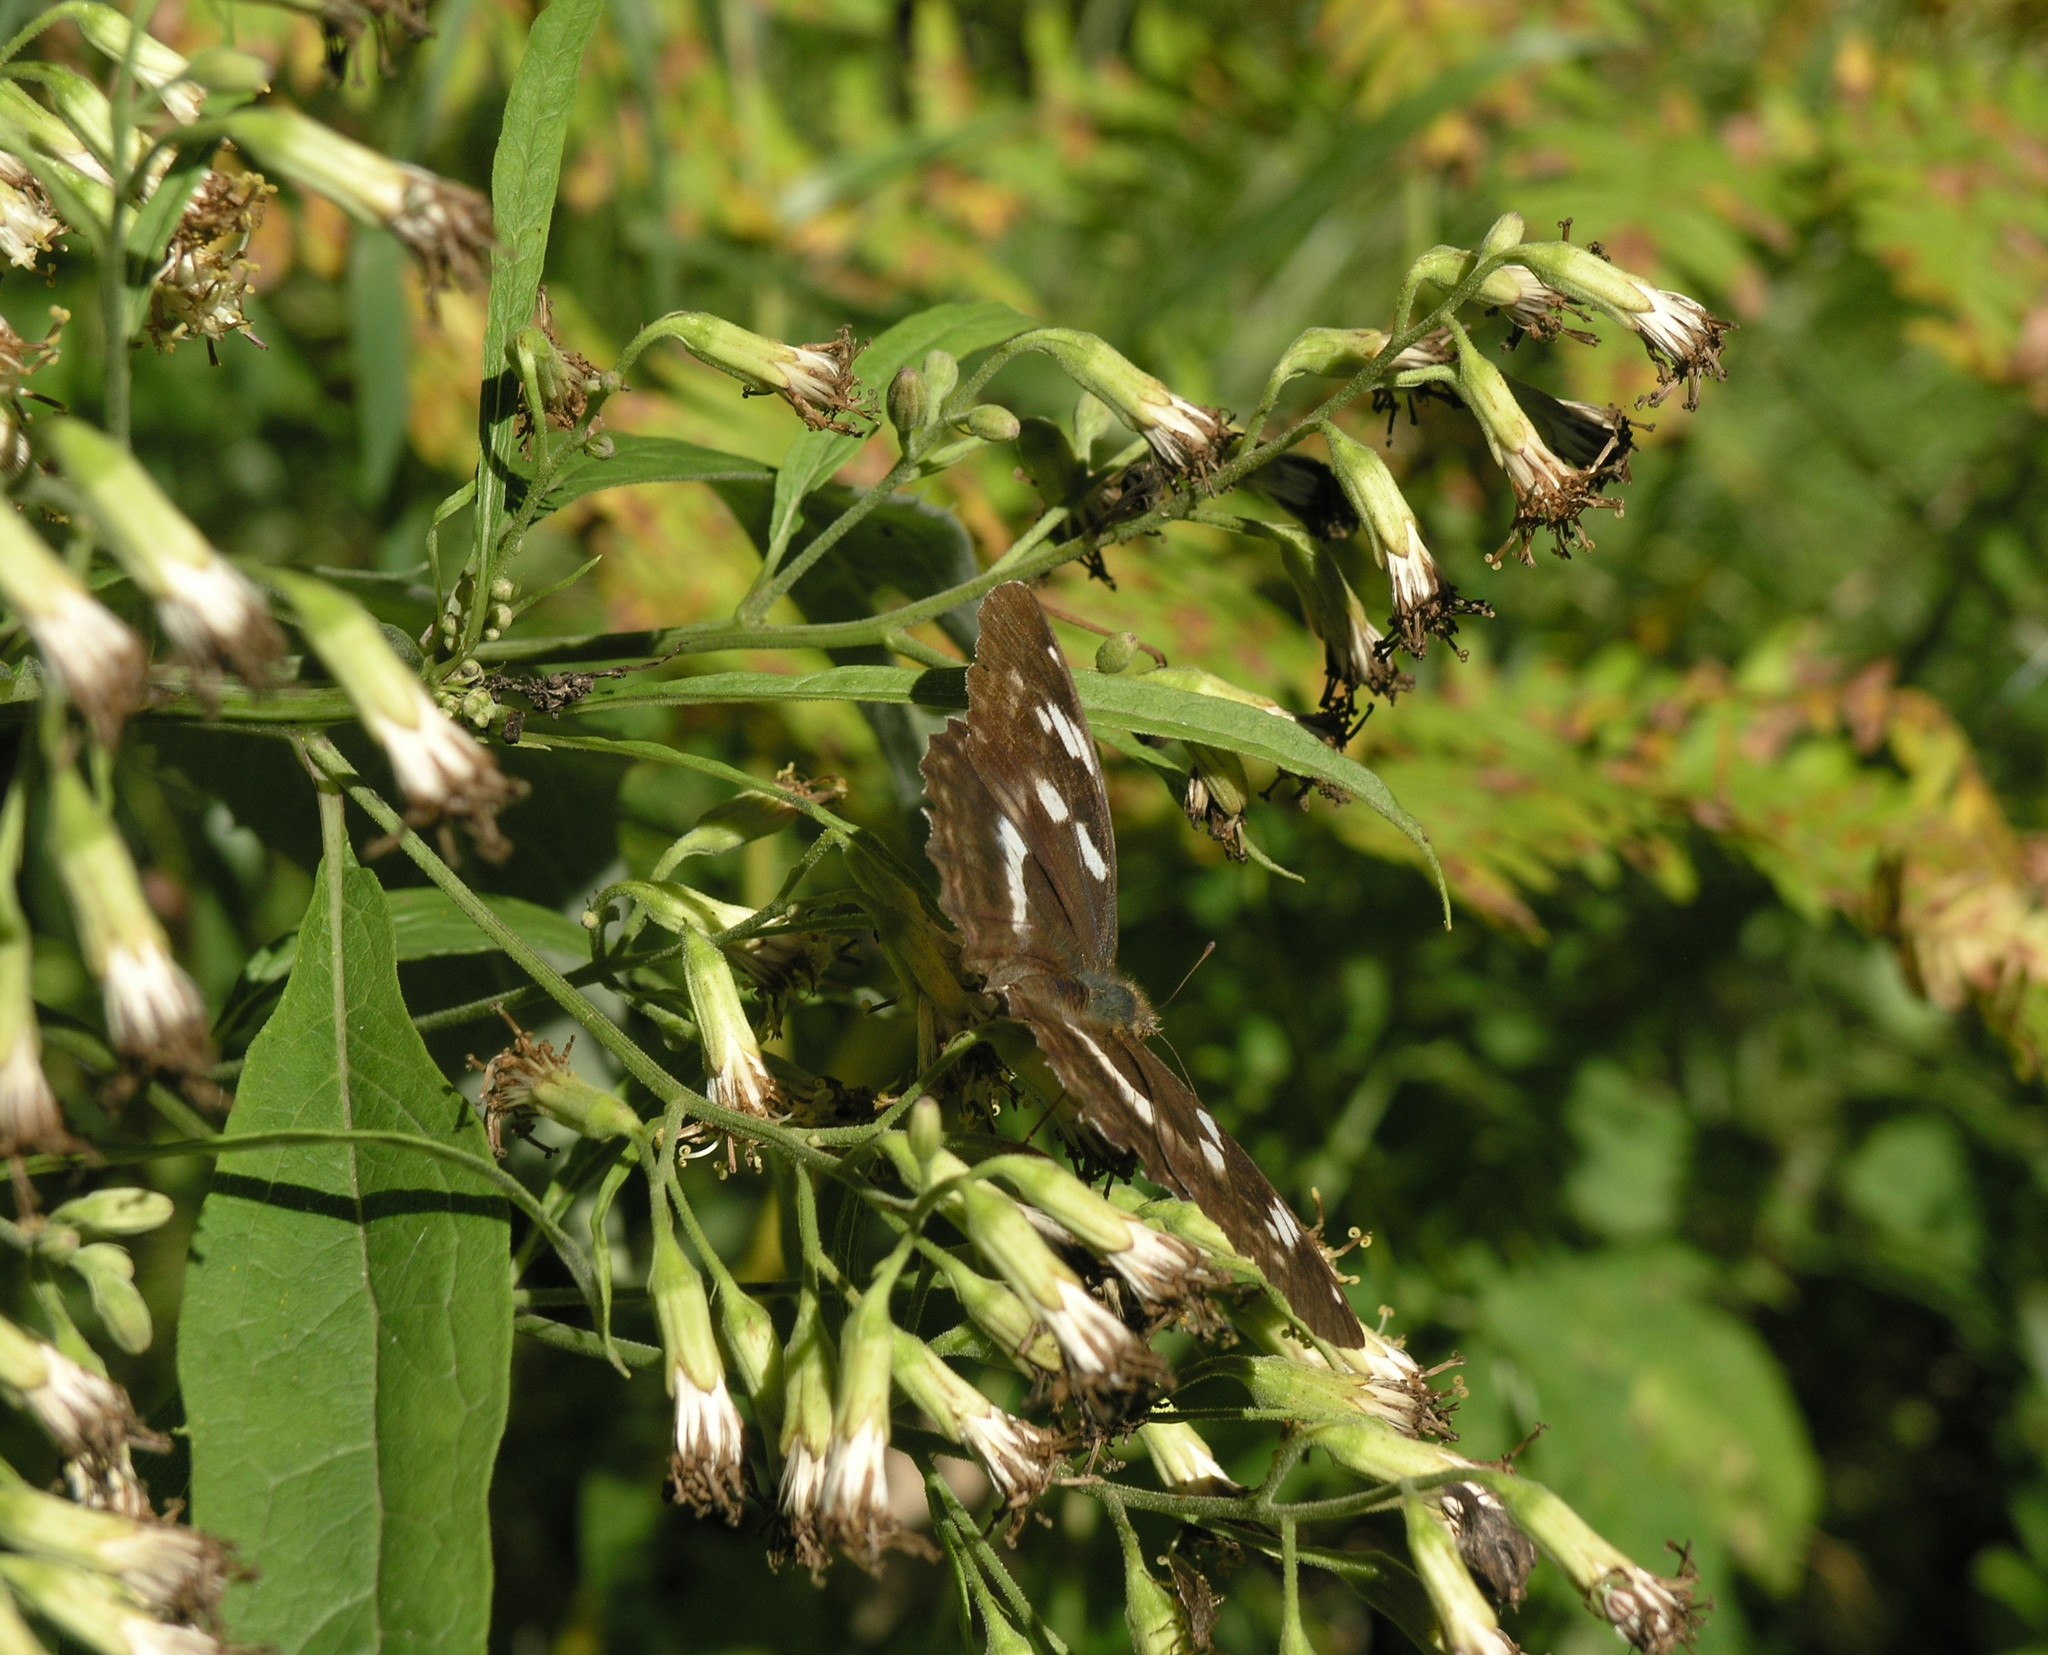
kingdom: Plantae
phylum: Tracheophyta
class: Magnoliopsida
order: Asterales
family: Asteraceae
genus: Parasenecio
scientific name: Parasenecio hastatus
